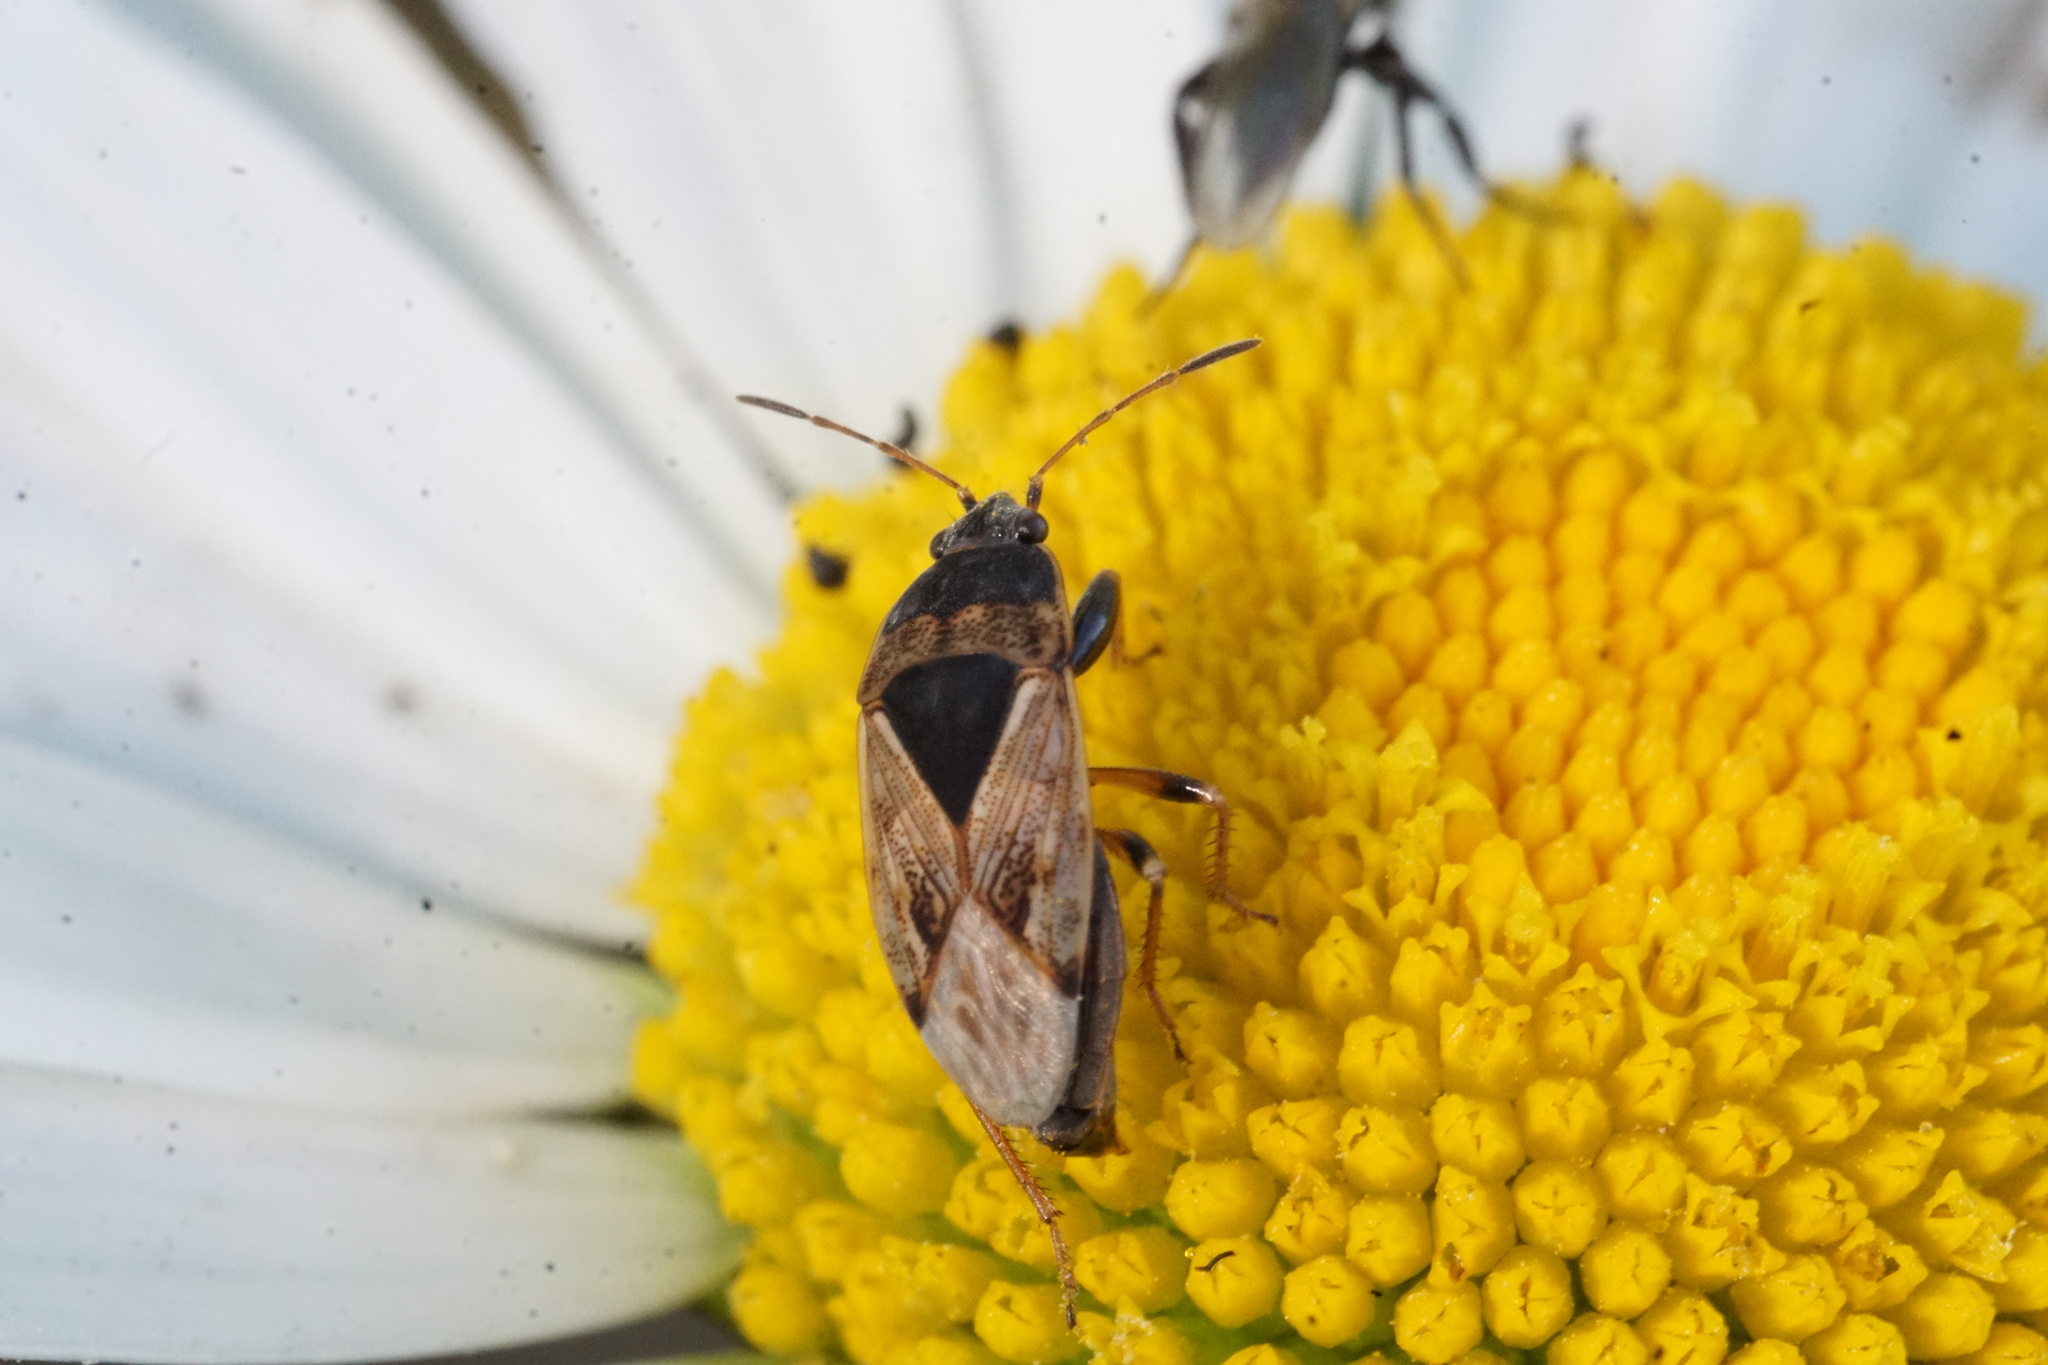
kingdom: Animalia
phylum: Arthropoda
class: Insecta
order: Hemiptera
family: Rhyparochromidae
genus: Trapezonotus
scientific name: Trapezonotus ullrichi
